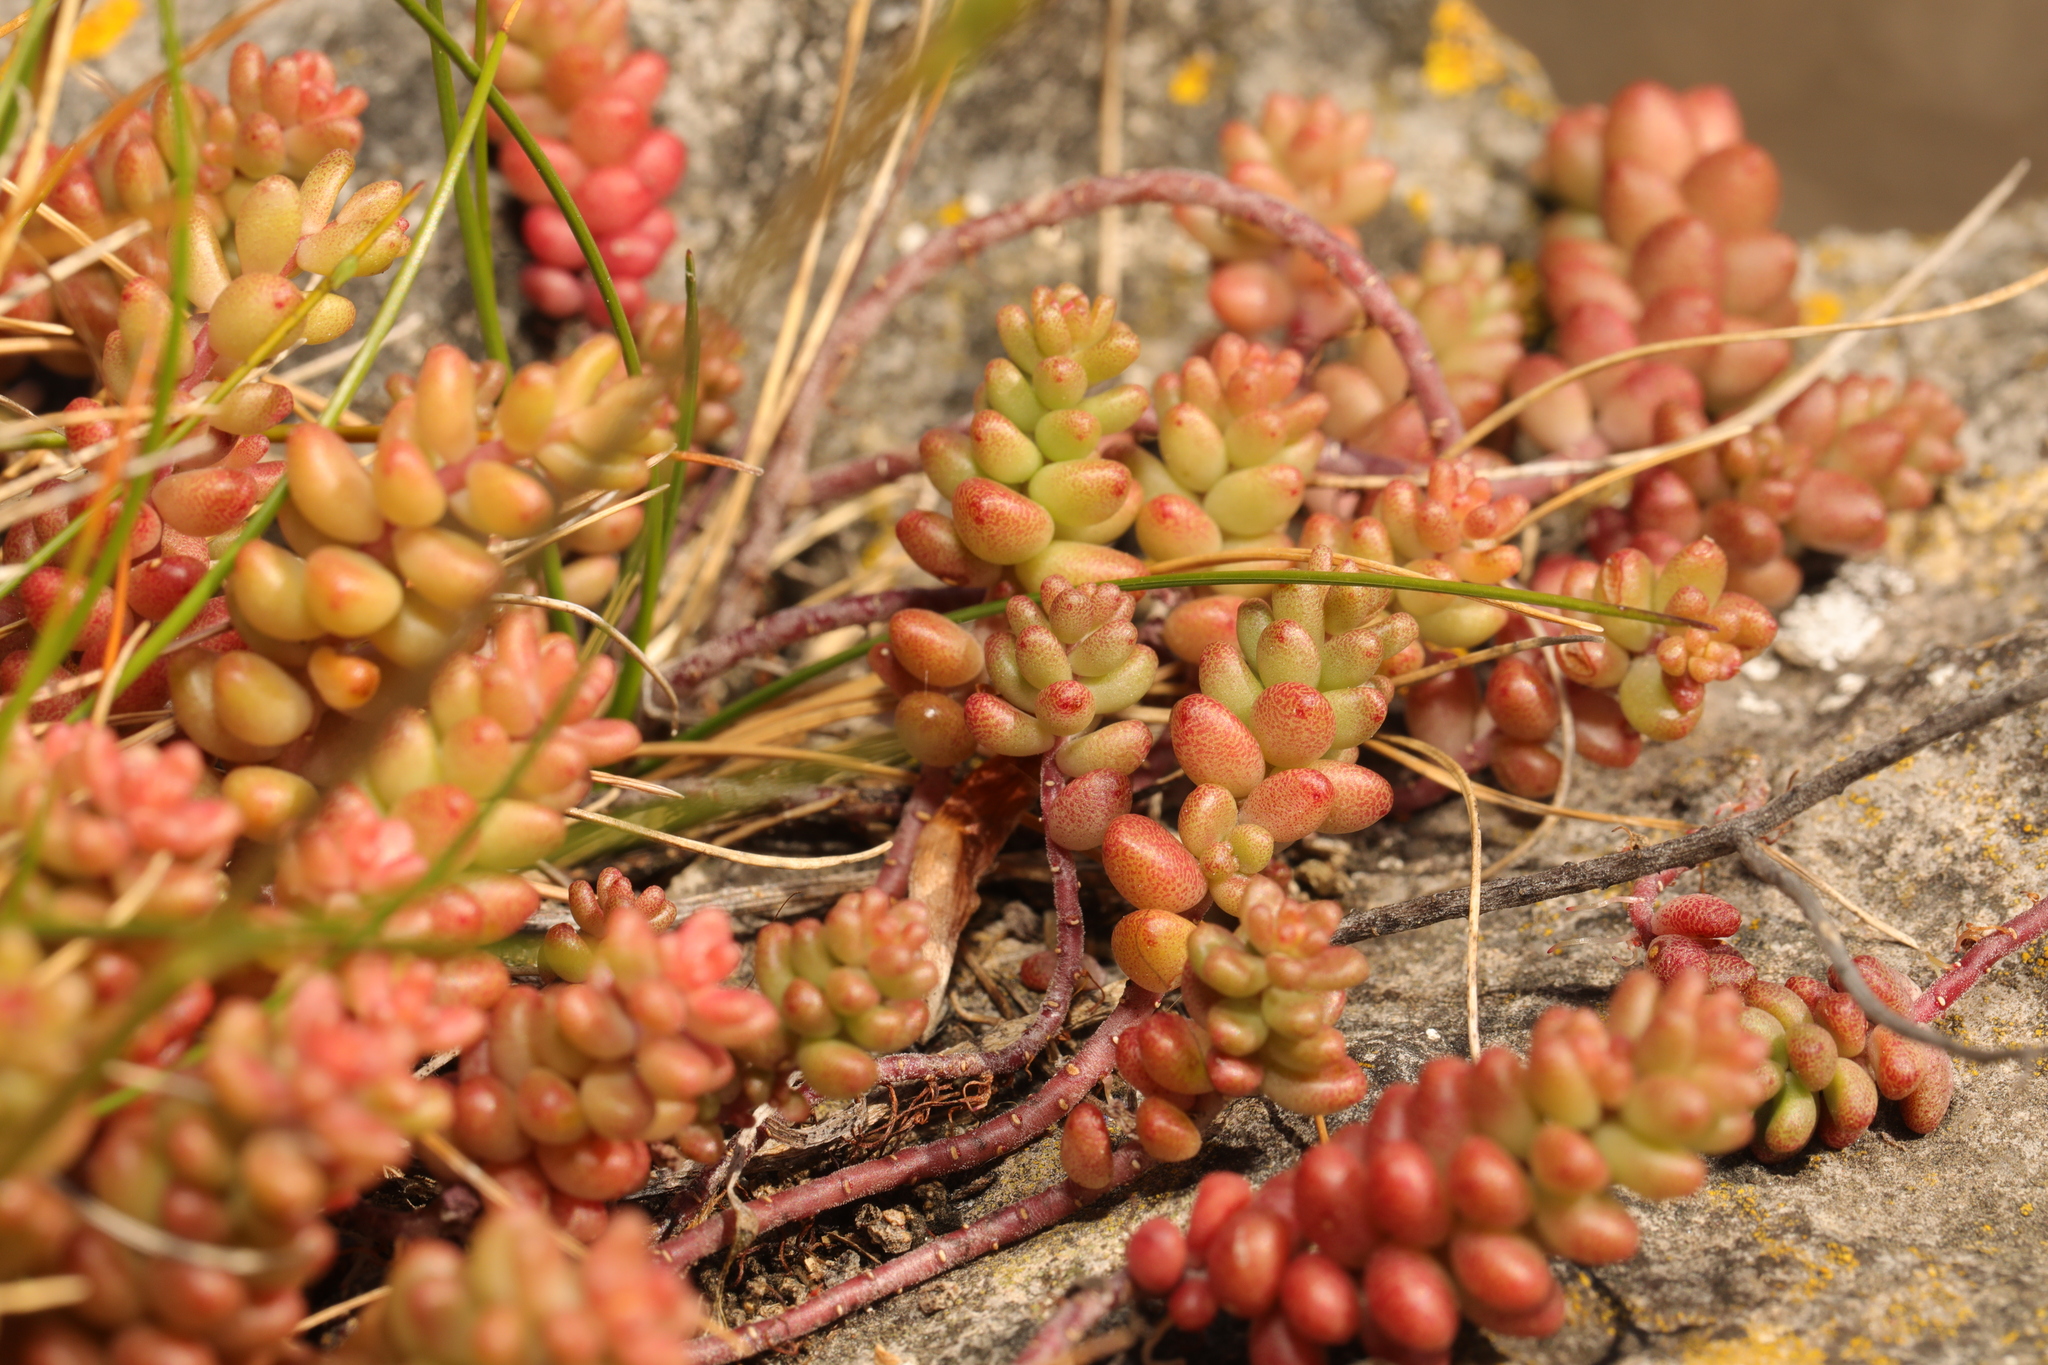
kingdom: Plantae
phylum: Tracheophyta
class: Magnoliopsida
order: Saxifragales
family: Crassulaceae
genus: Sedum
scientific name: Sedum album
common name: White stonecrop
